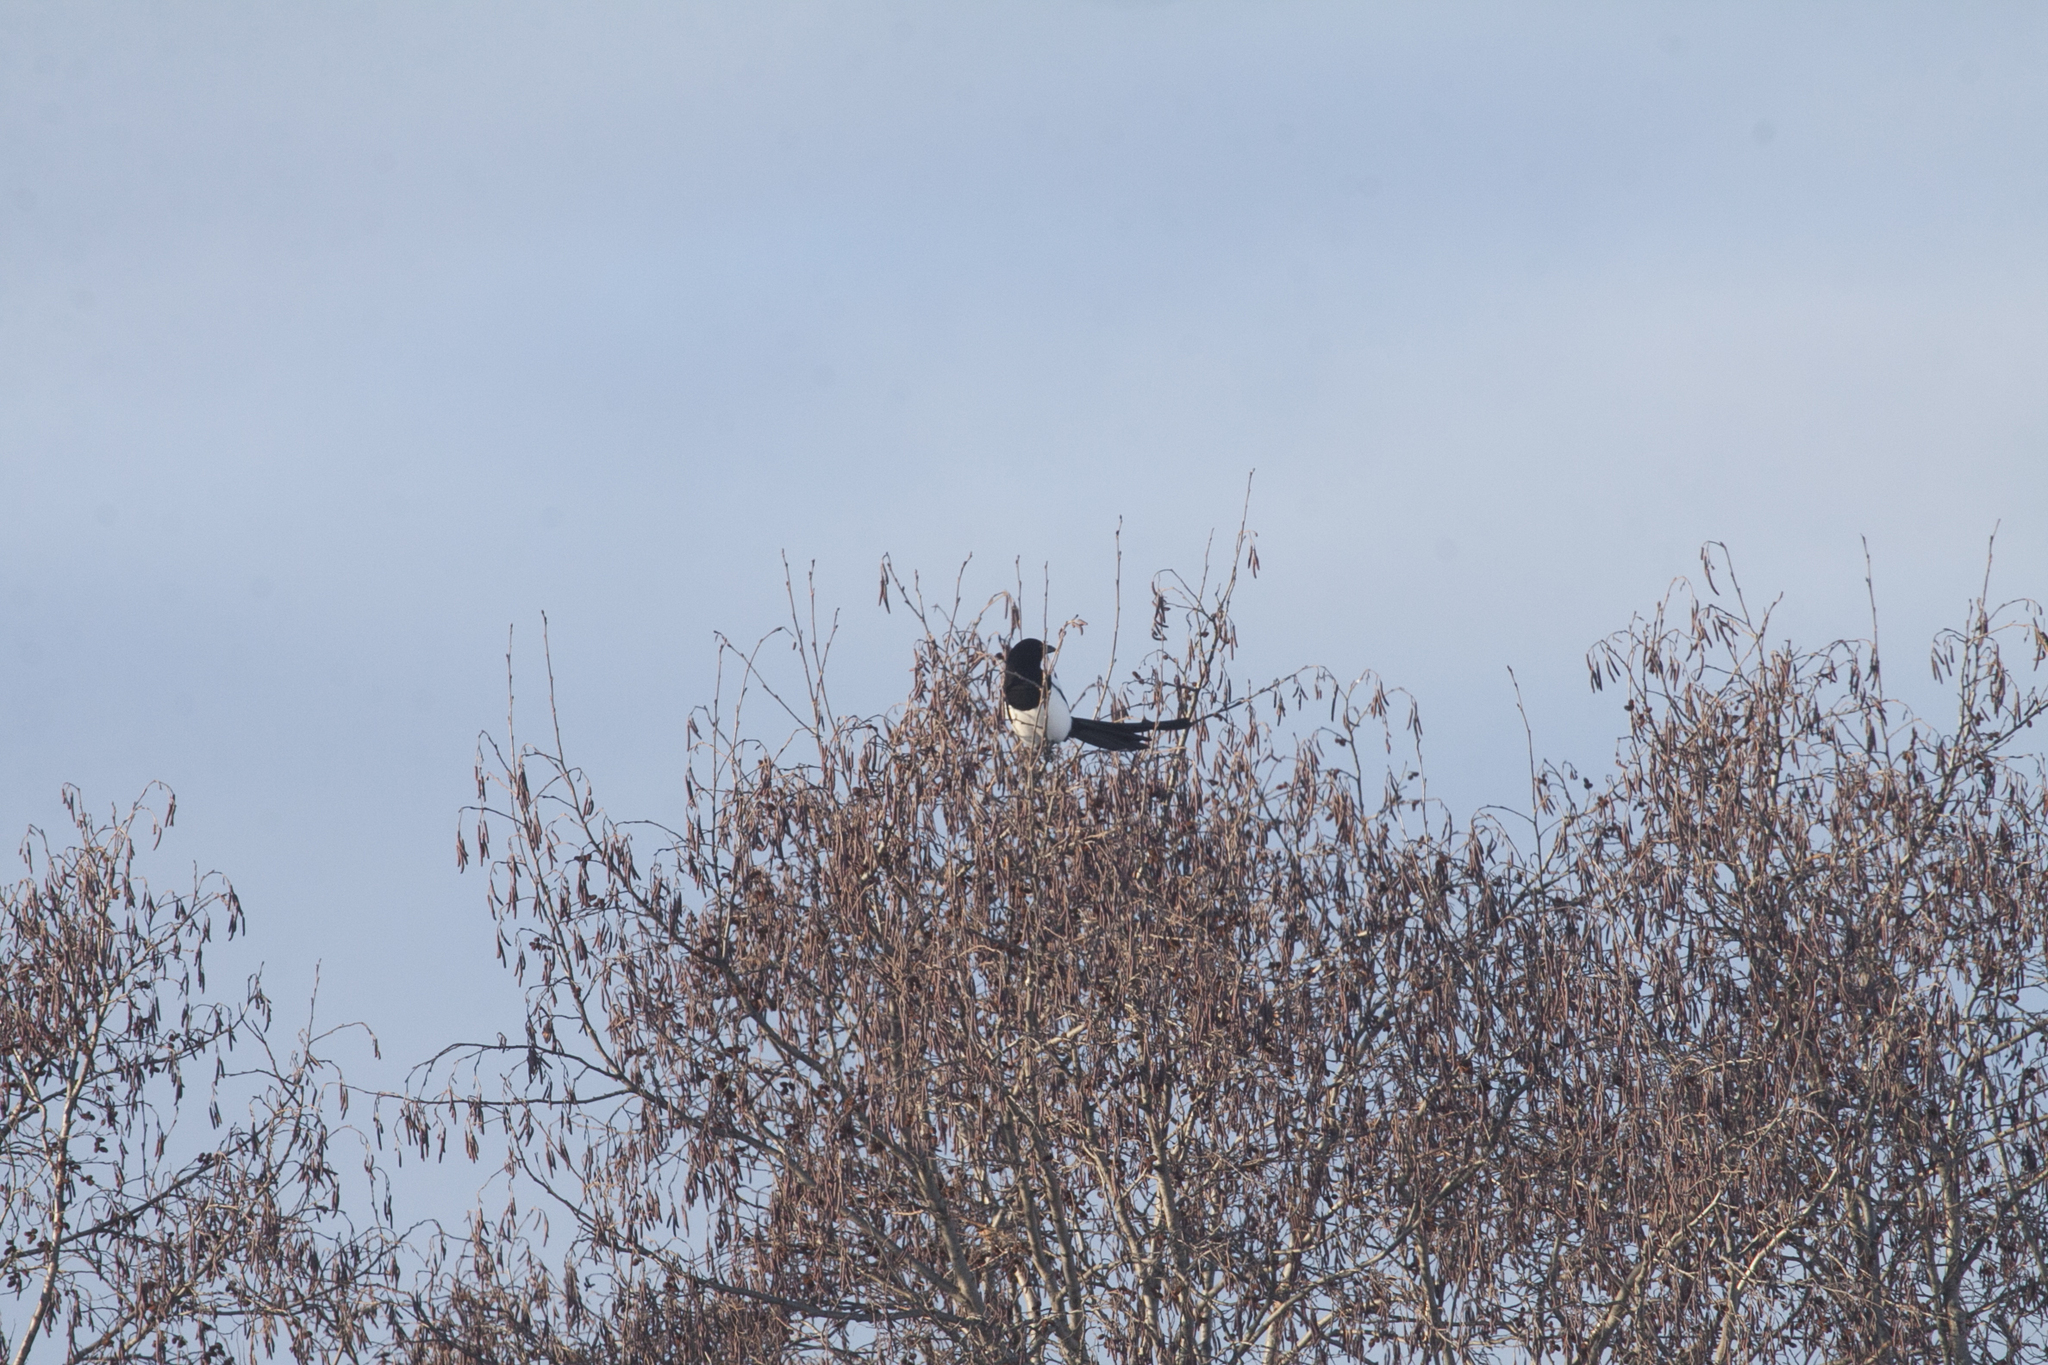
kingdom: Animalia
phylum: Chordata
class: Aves
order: Passeriformes
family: Corvidae
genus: Pica
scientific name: Pica pica
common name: Eurasian magpie
